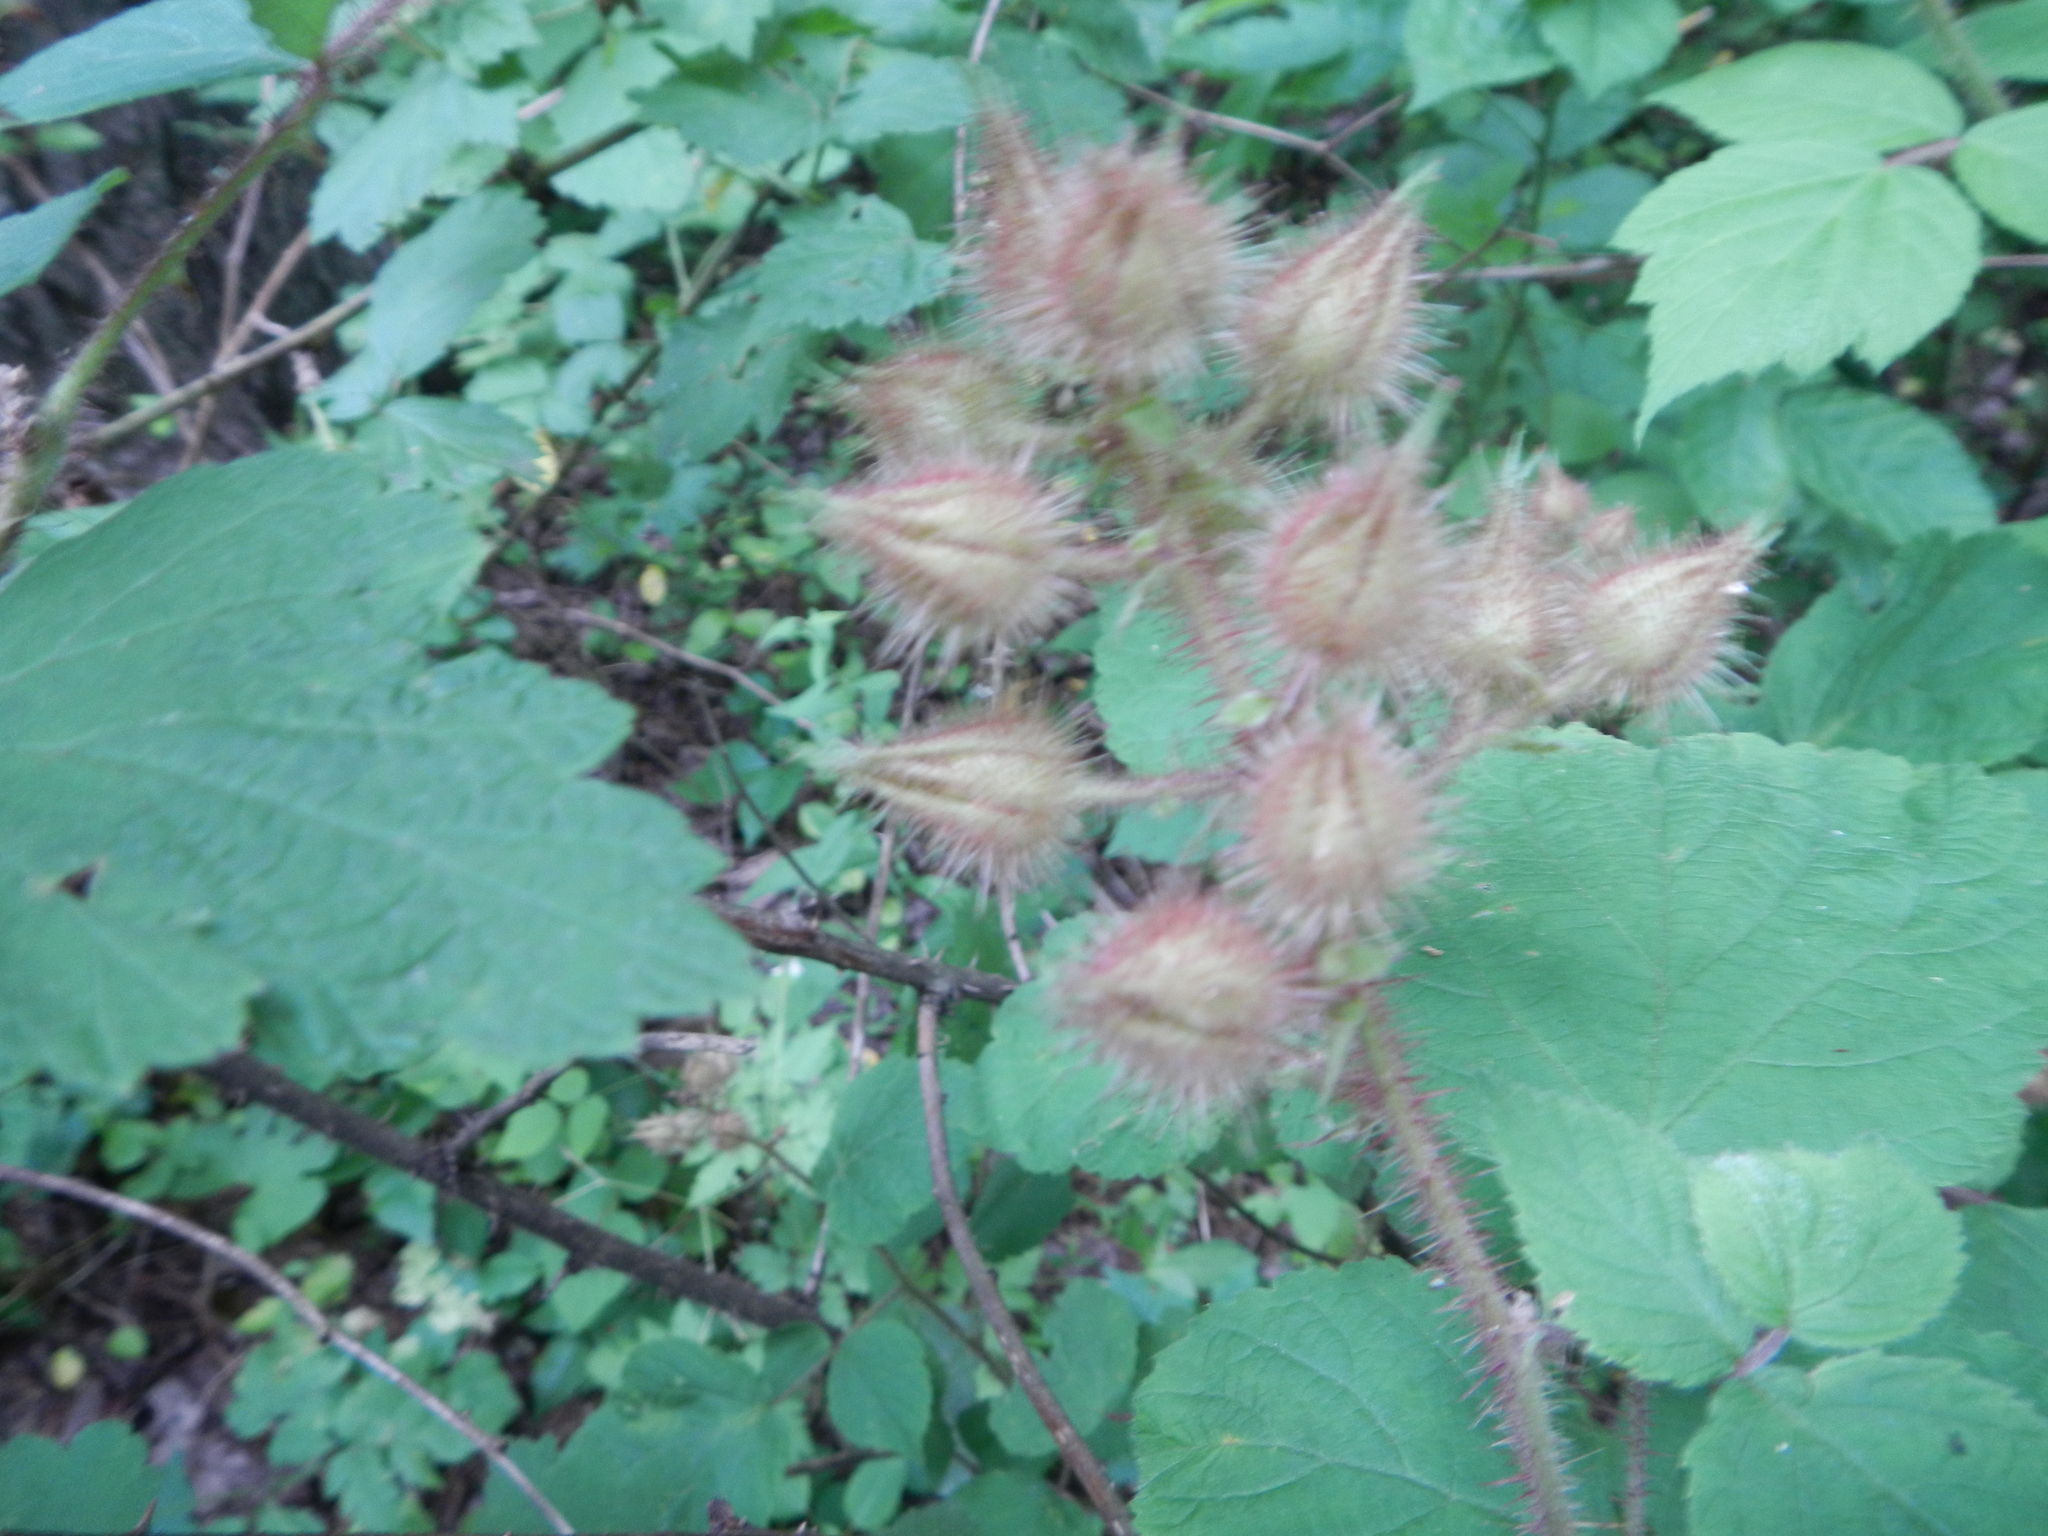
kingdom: Plantae
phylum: Tracheophyta
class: Magnoliopsida
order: Rosales
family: Rosaceae
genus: Rubus
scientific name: Rubus phoenicolasius
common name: Japanese wineberry
